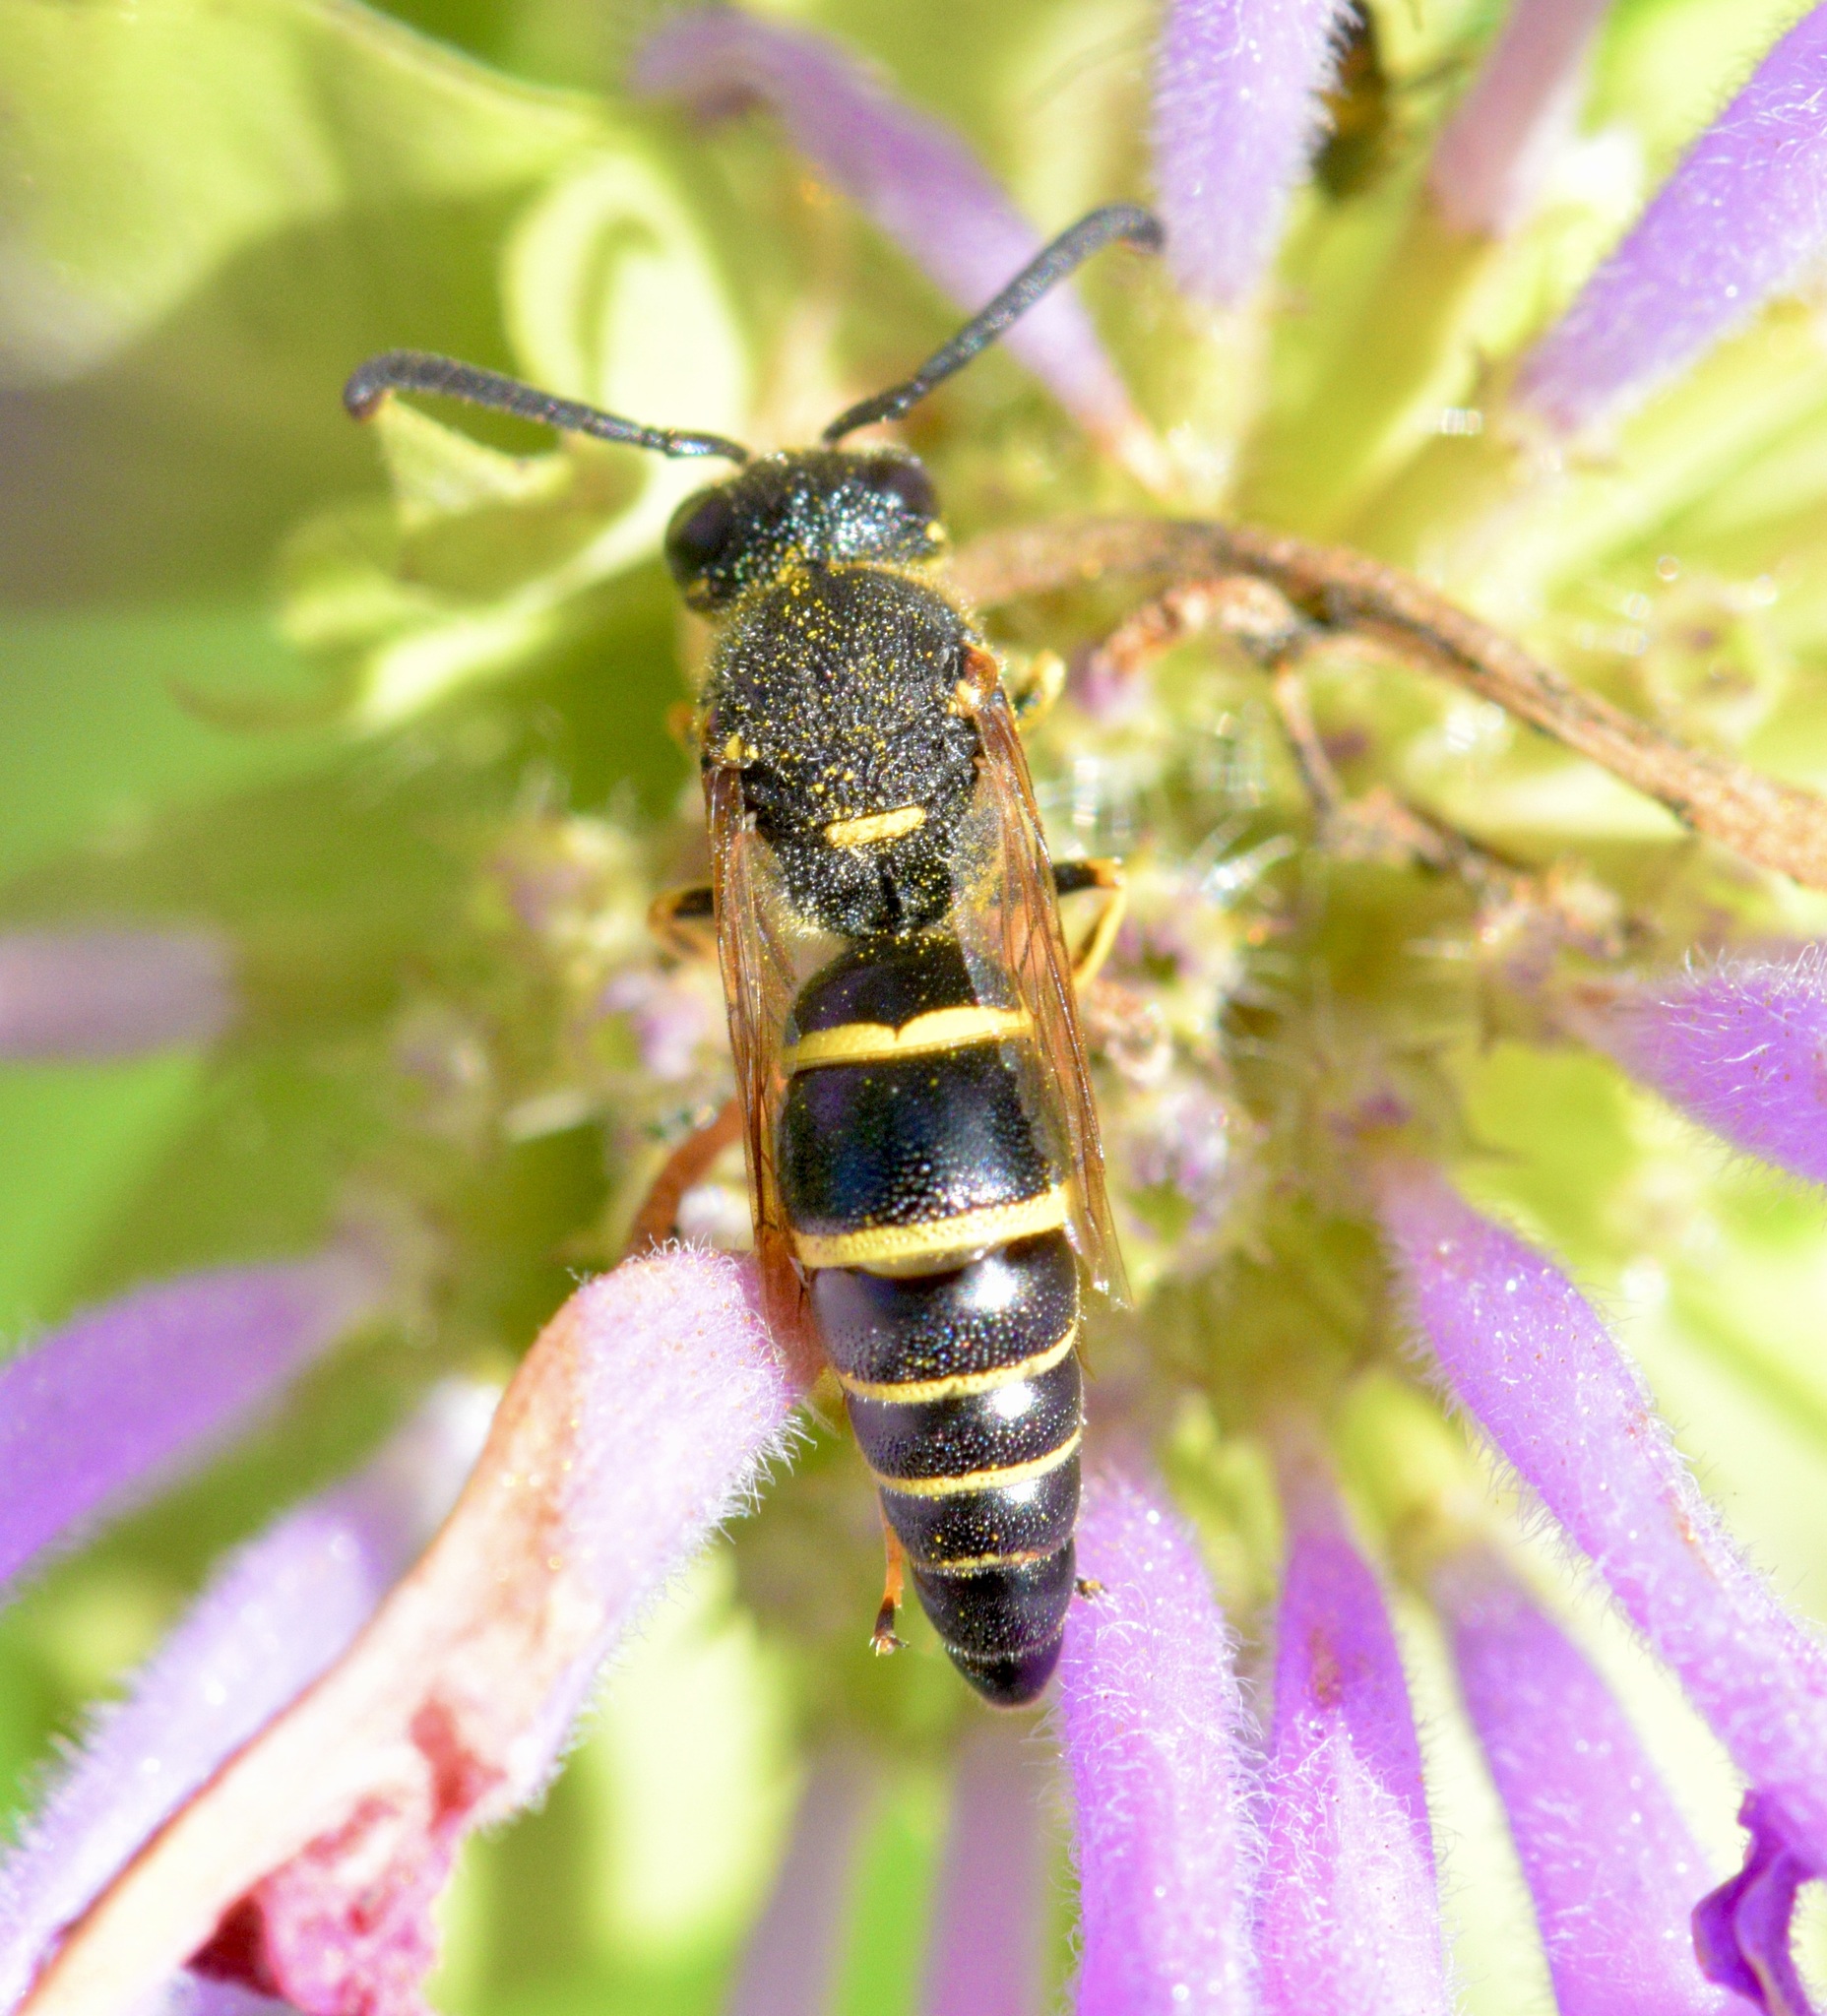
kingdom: Animalia
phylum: Arthropoda
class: Insecta
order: Hymenoptera
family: Eumenidae
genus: Euodynerus
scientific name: Euodynerus foraminatus
